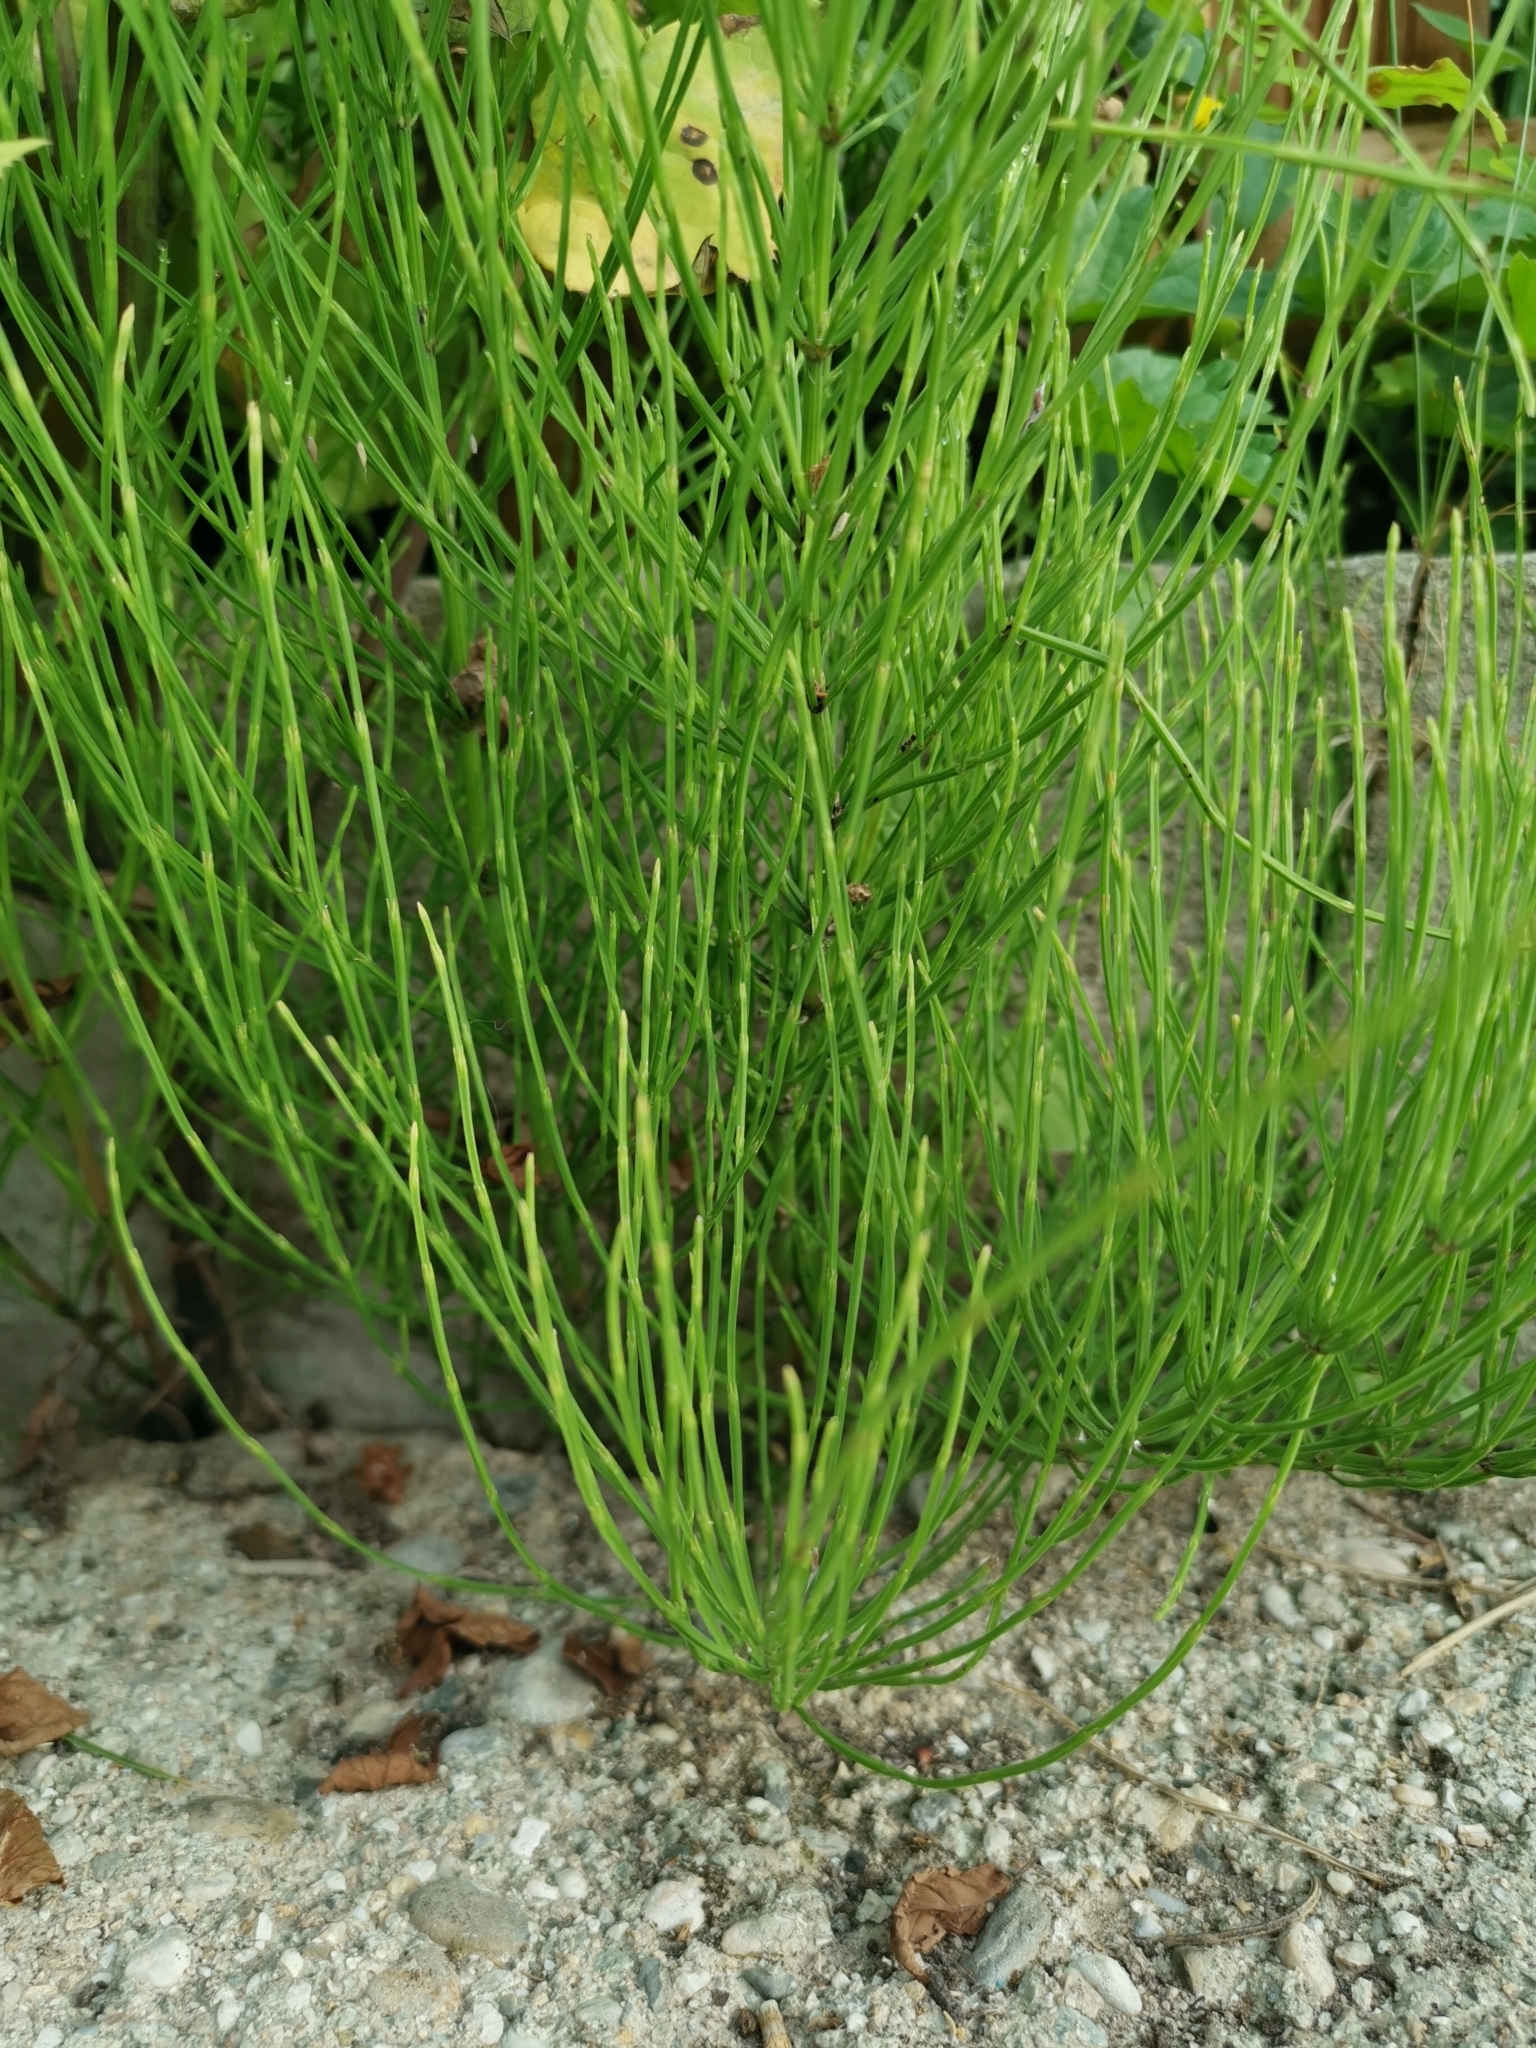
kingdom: Plantae
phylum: Tracheophyta
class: Polypodiopsida
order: Equisetales
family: Equisetaceae
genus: Equisetum
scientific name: Equisetum arvense
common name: Field horsetail
